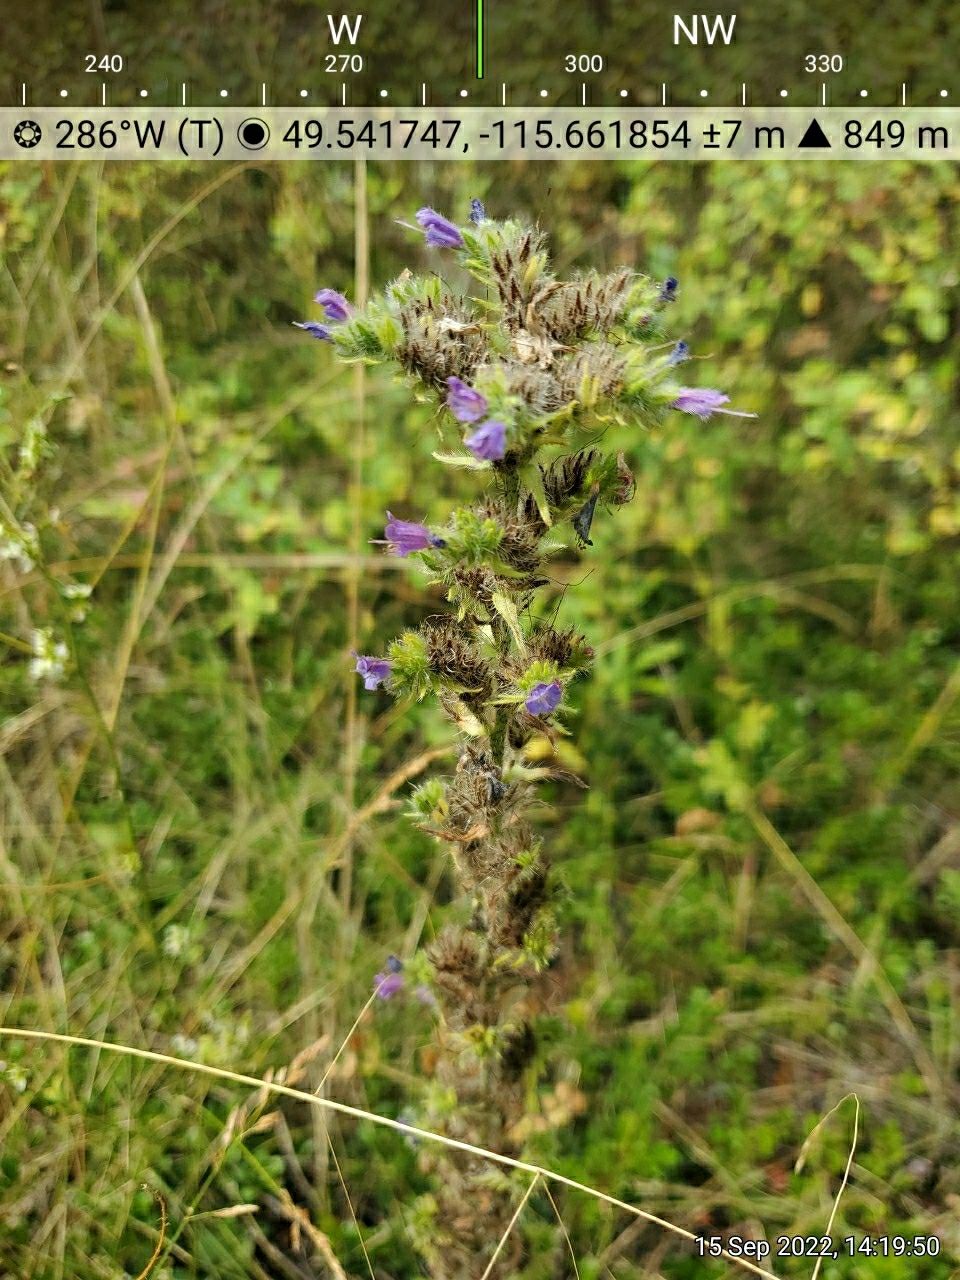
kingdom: Plantae
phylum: Tracheophyta
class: Magnoliopsida
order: Boraginales
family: Boraginaceae
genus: Echium
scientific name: Echium vulgare
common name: Common viper's bugloss
